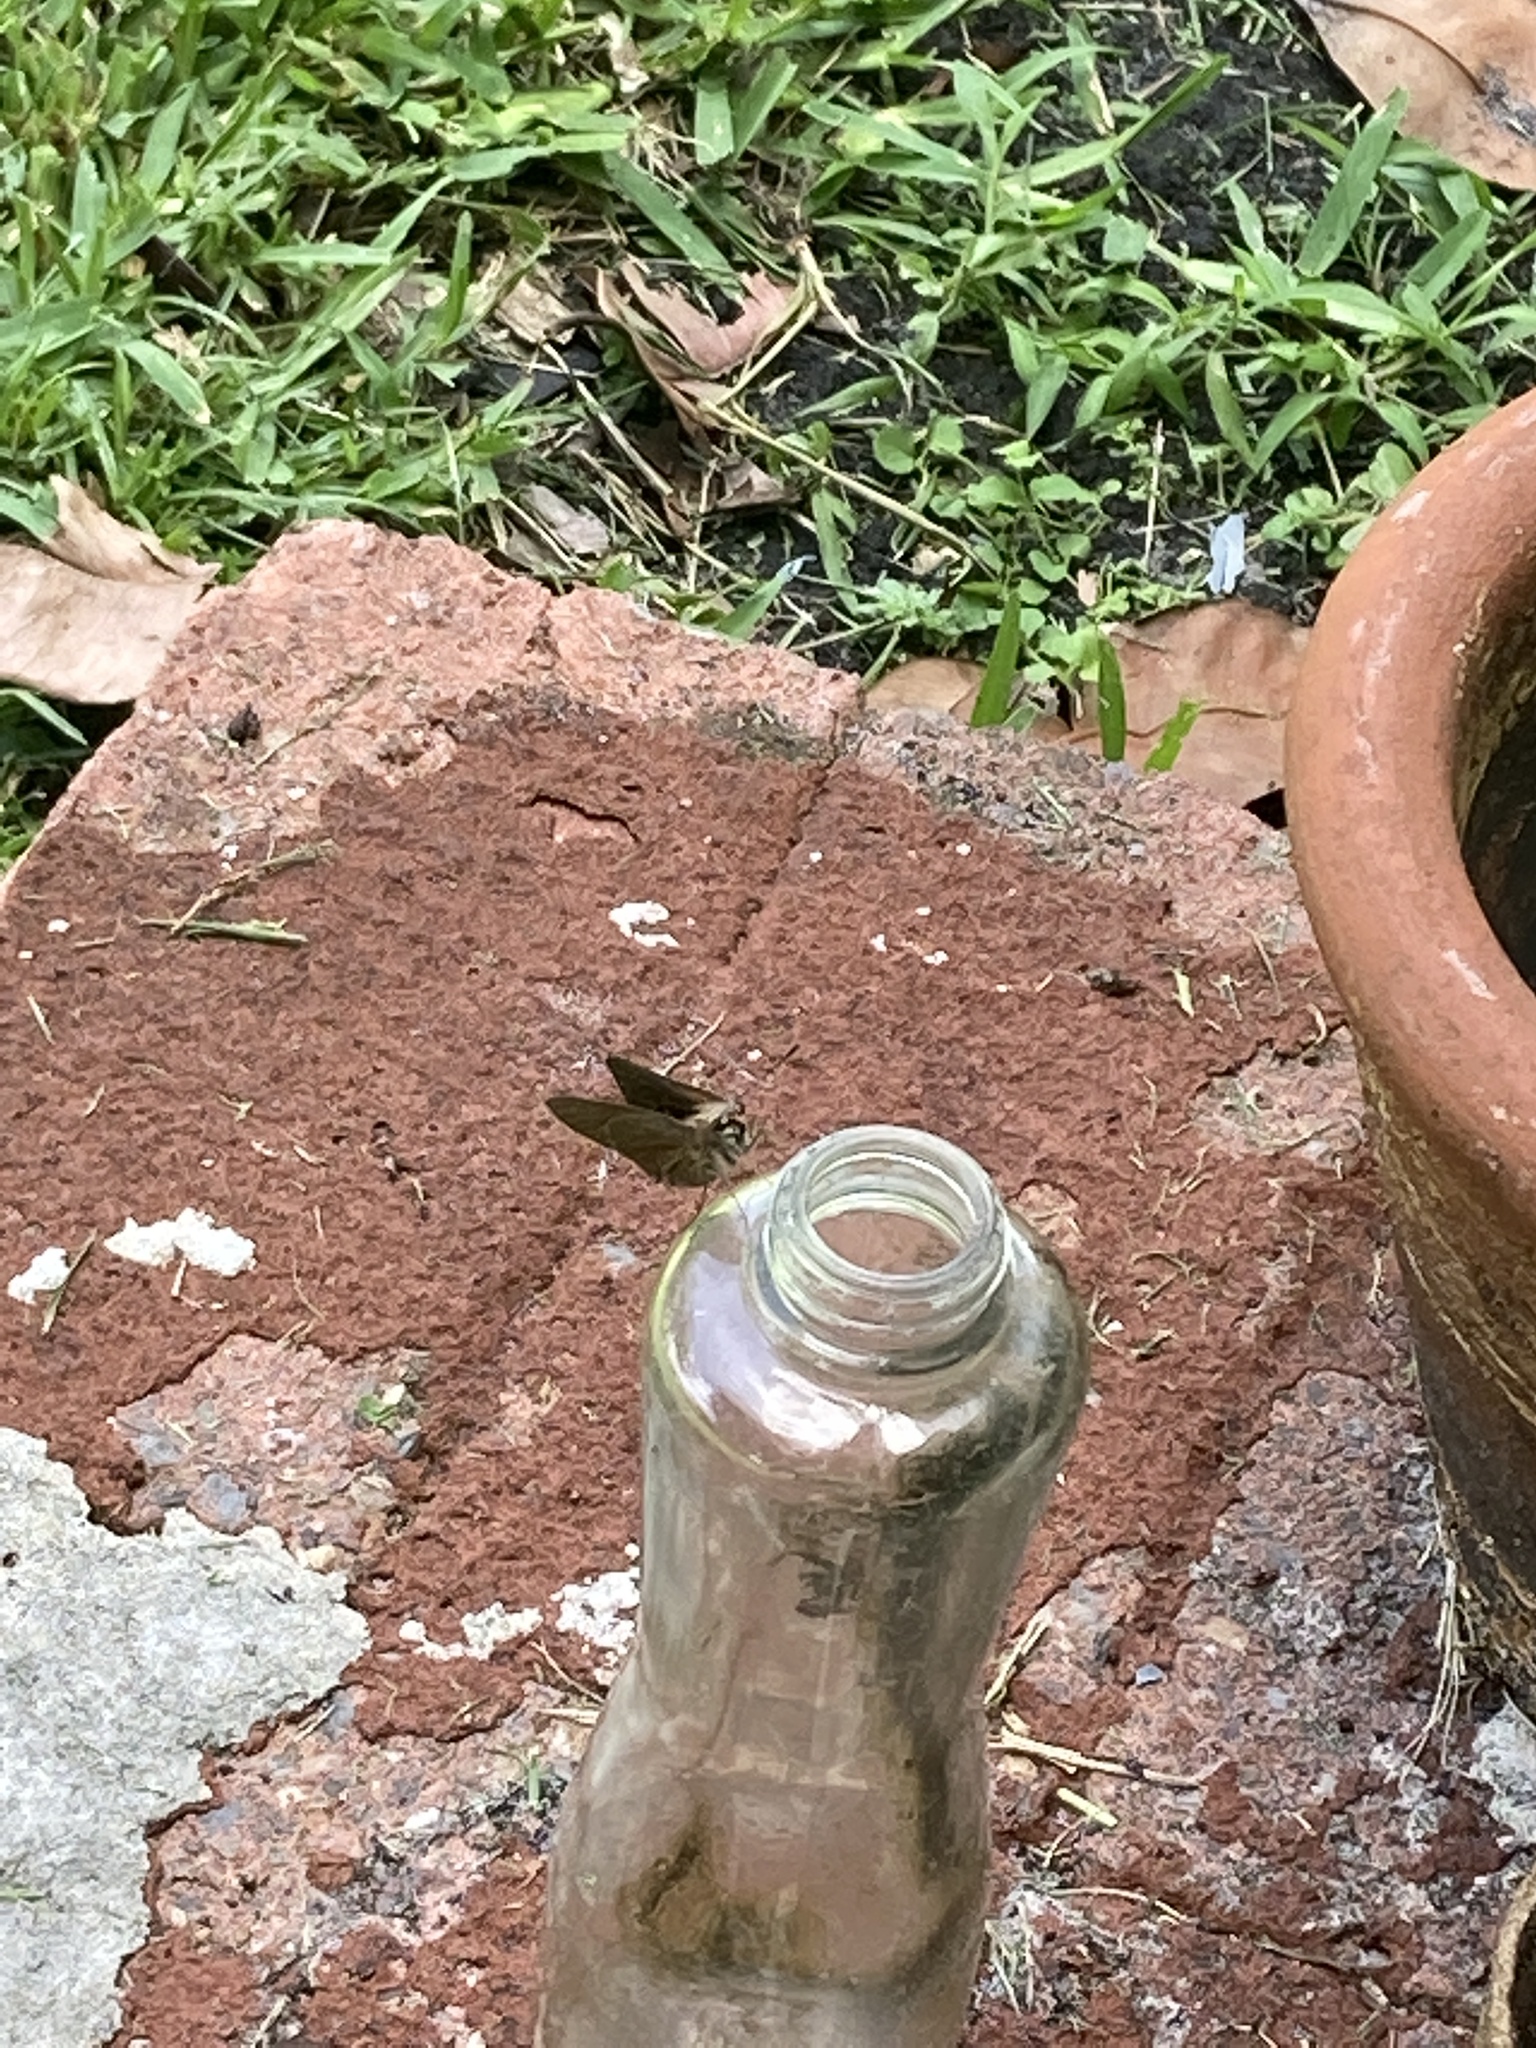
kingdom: Animalia
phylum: Arthropoda
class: Insecta
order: Lepidoptera
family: Hesperiidae
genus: Asbolis
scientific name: Asbolis capucinus
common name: Monk skipper
